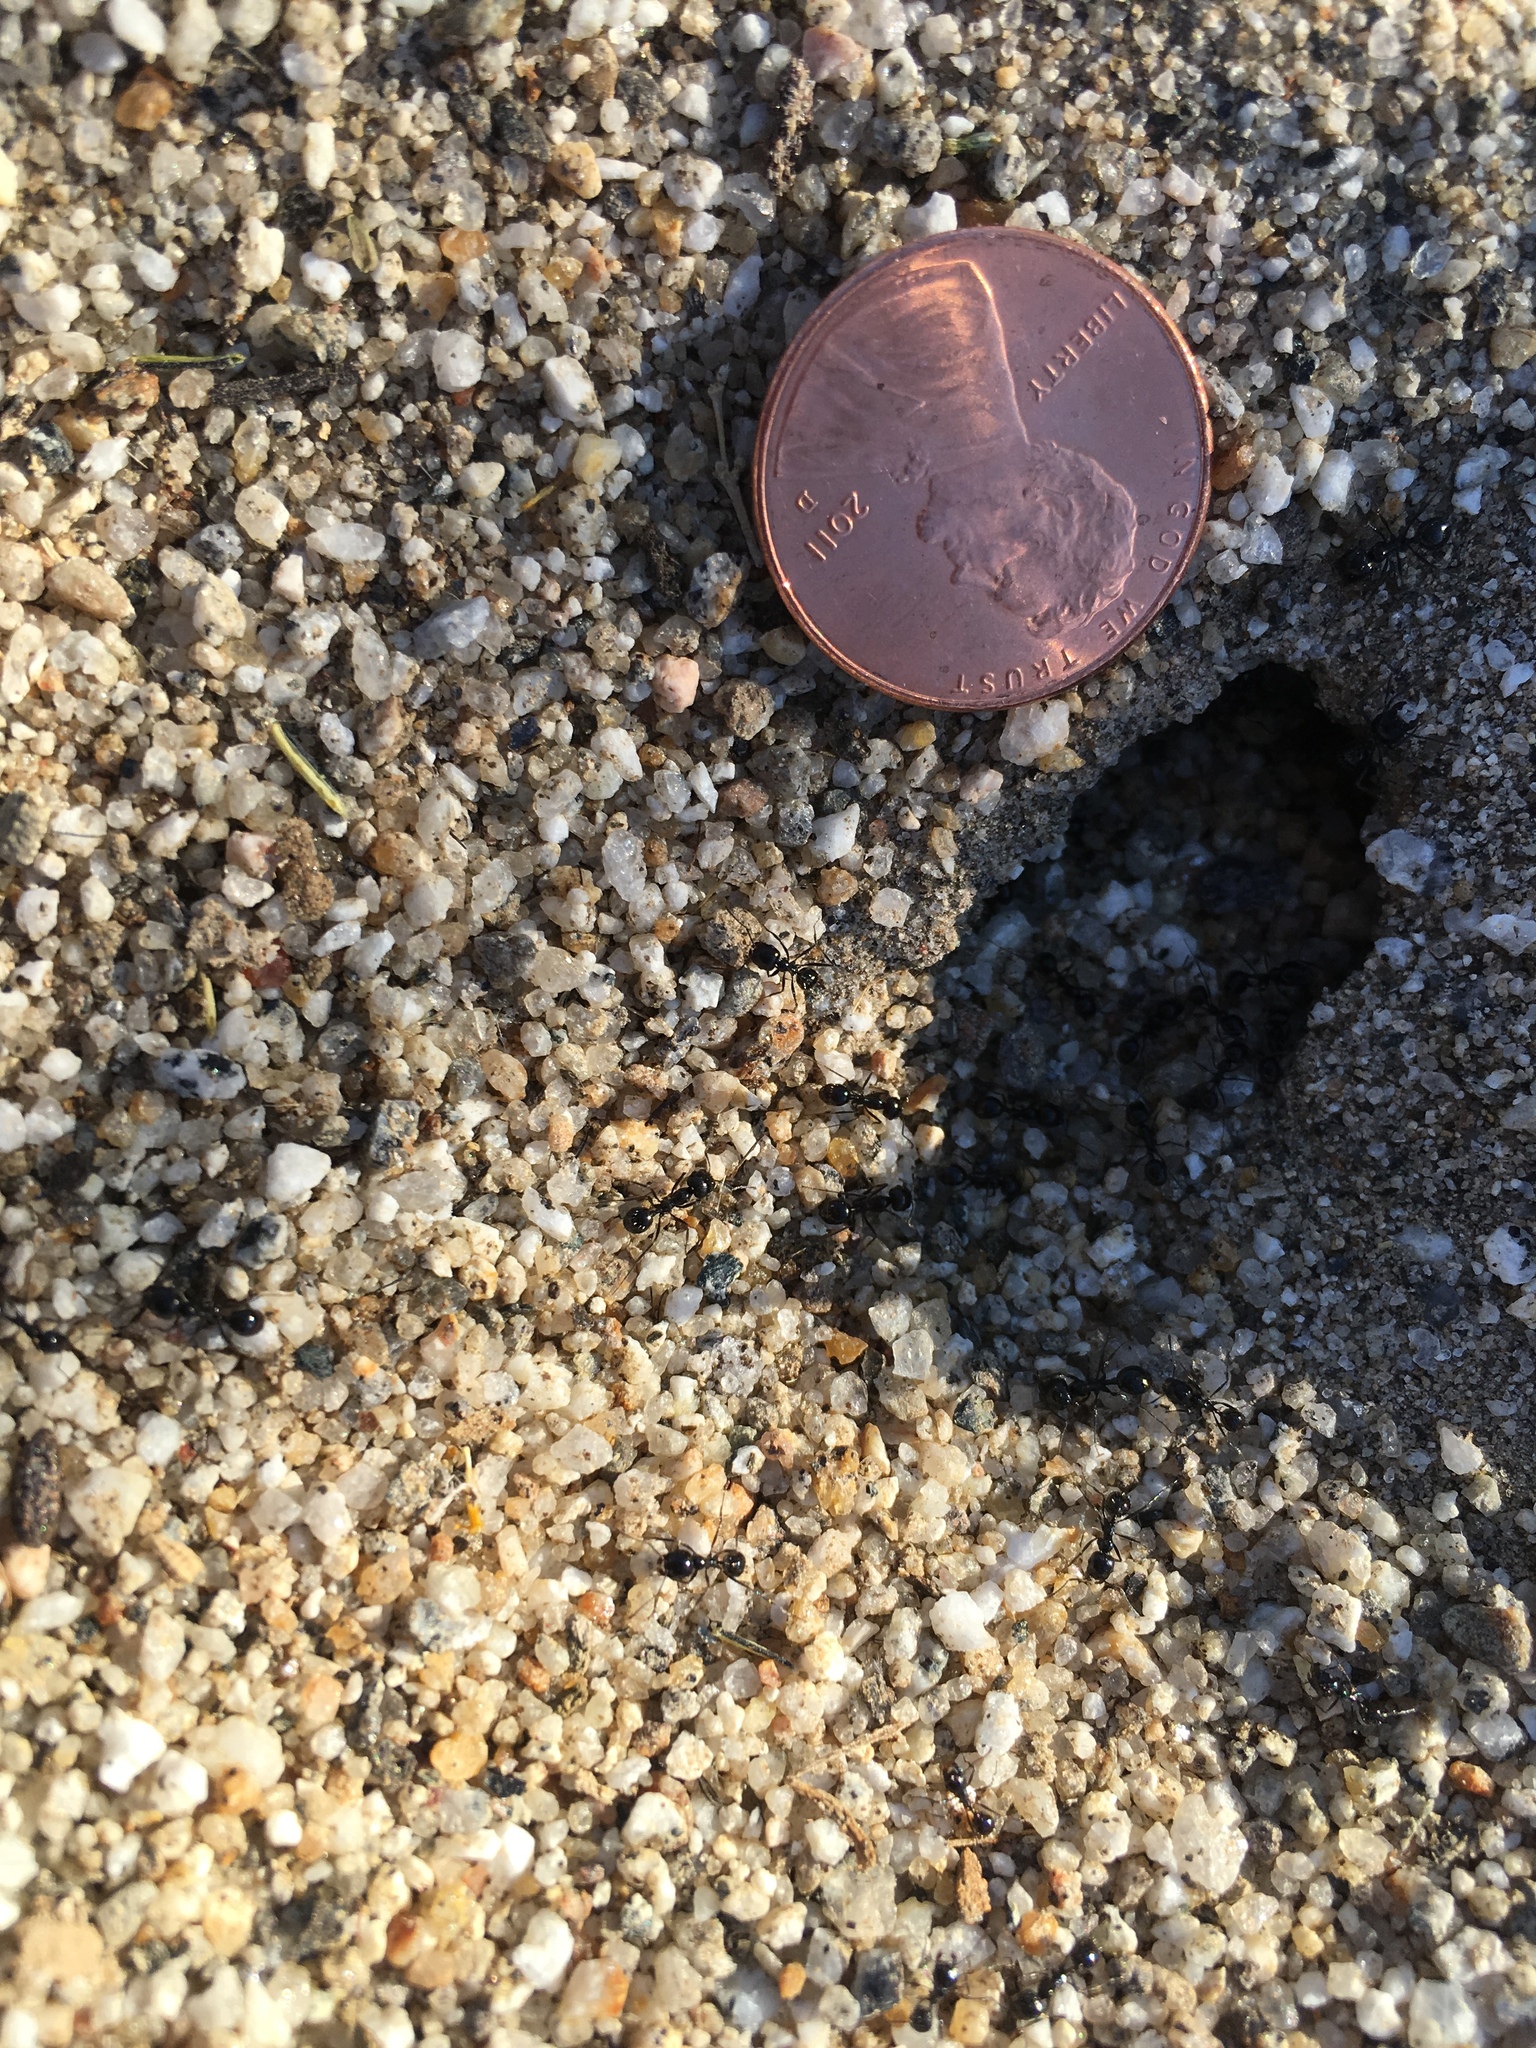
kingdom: Animalia
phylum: Arthropoda
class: Insecta
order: Hymenoptera
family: Formicidae
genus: Messor
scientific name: Messor pergandei
